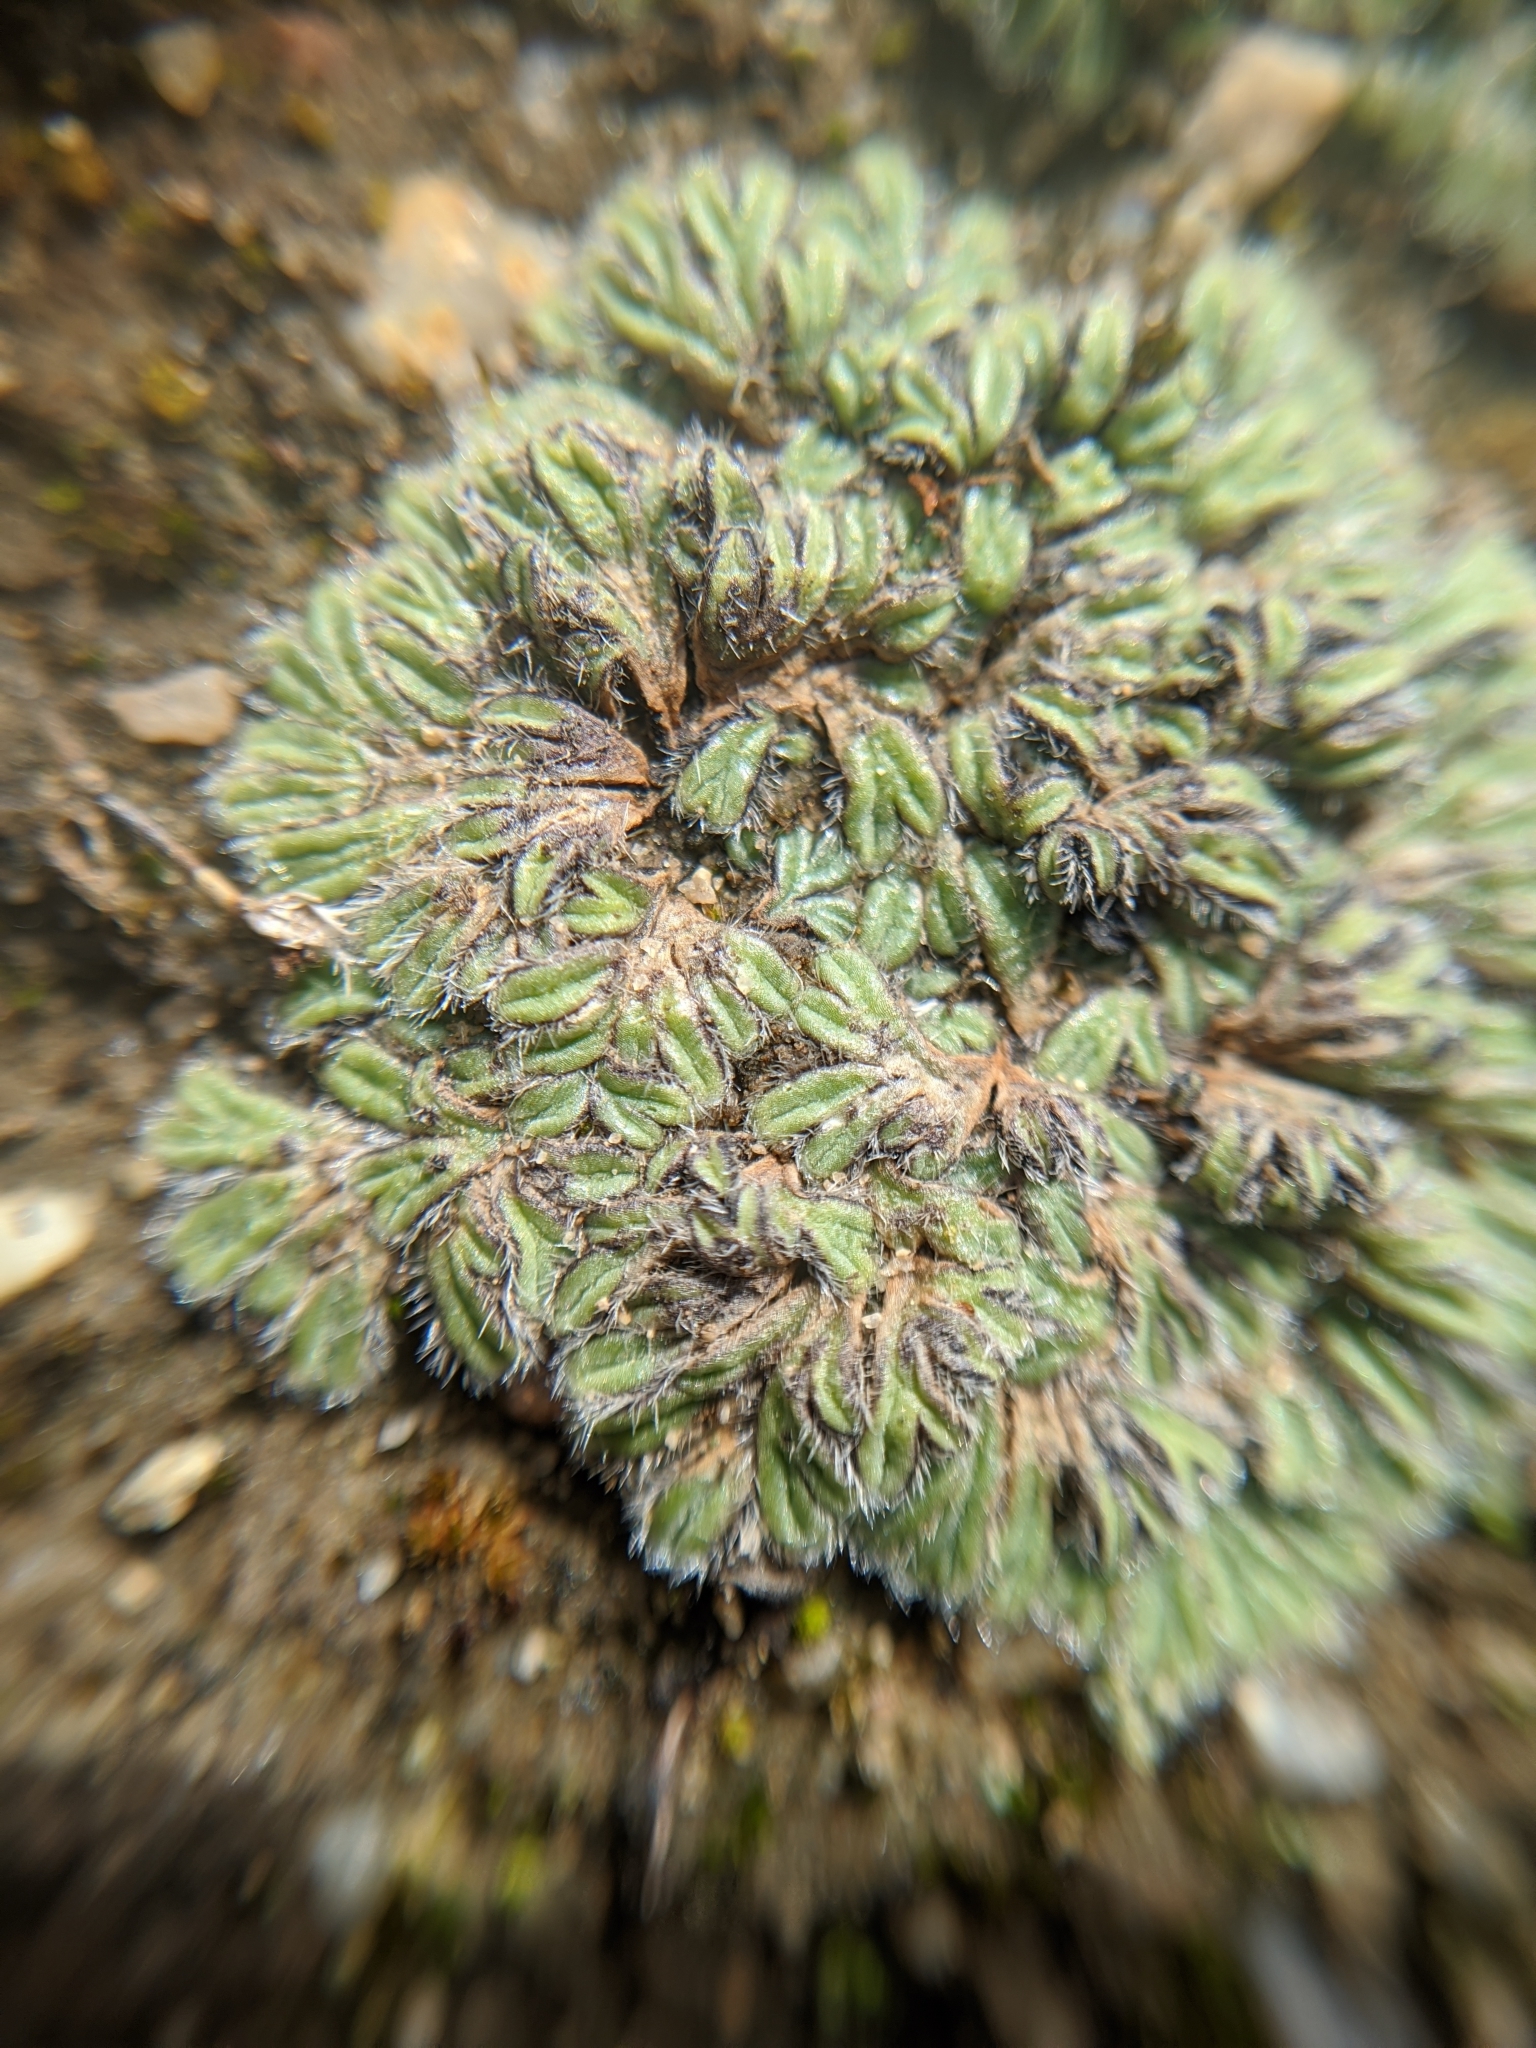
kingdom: Plantae
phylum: Marchantiophyta
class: Marchantiopsida
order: Marchantiales
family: Ricciaceae
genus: Riccia
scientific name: Riccia trichocarpa
